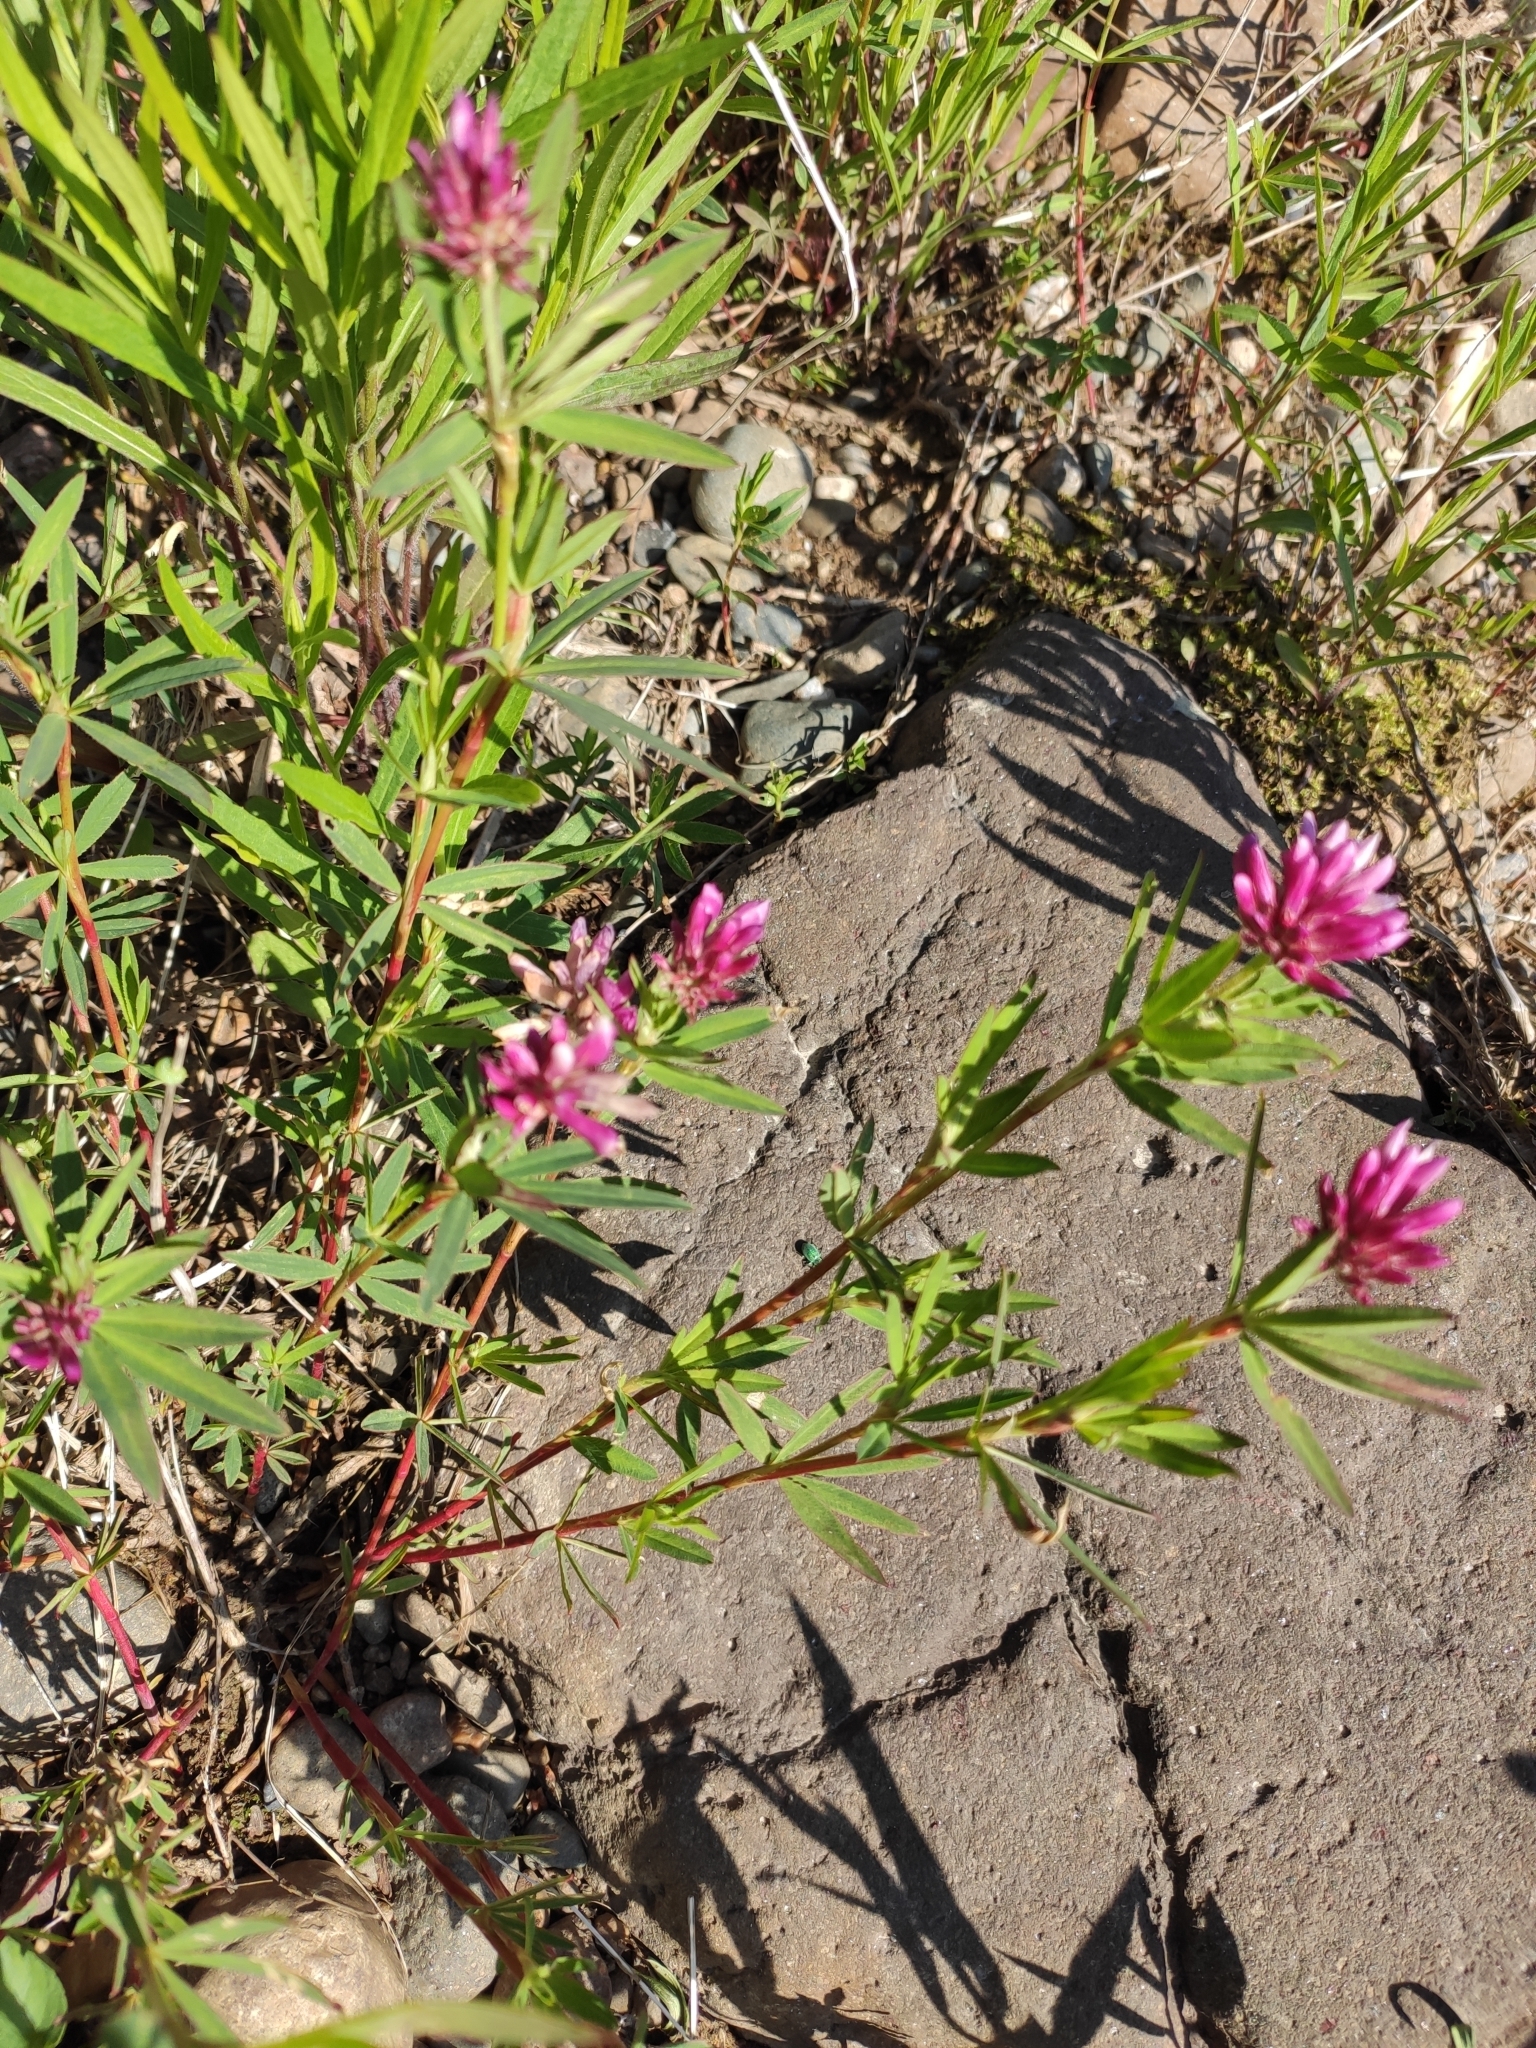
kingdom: Plantae
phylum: Tracheophyta
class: Magnoliopsida
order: Fabales
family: Fabaceae
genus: Trifolium
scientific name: Trifolium lupinaster
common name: Lupine clover
